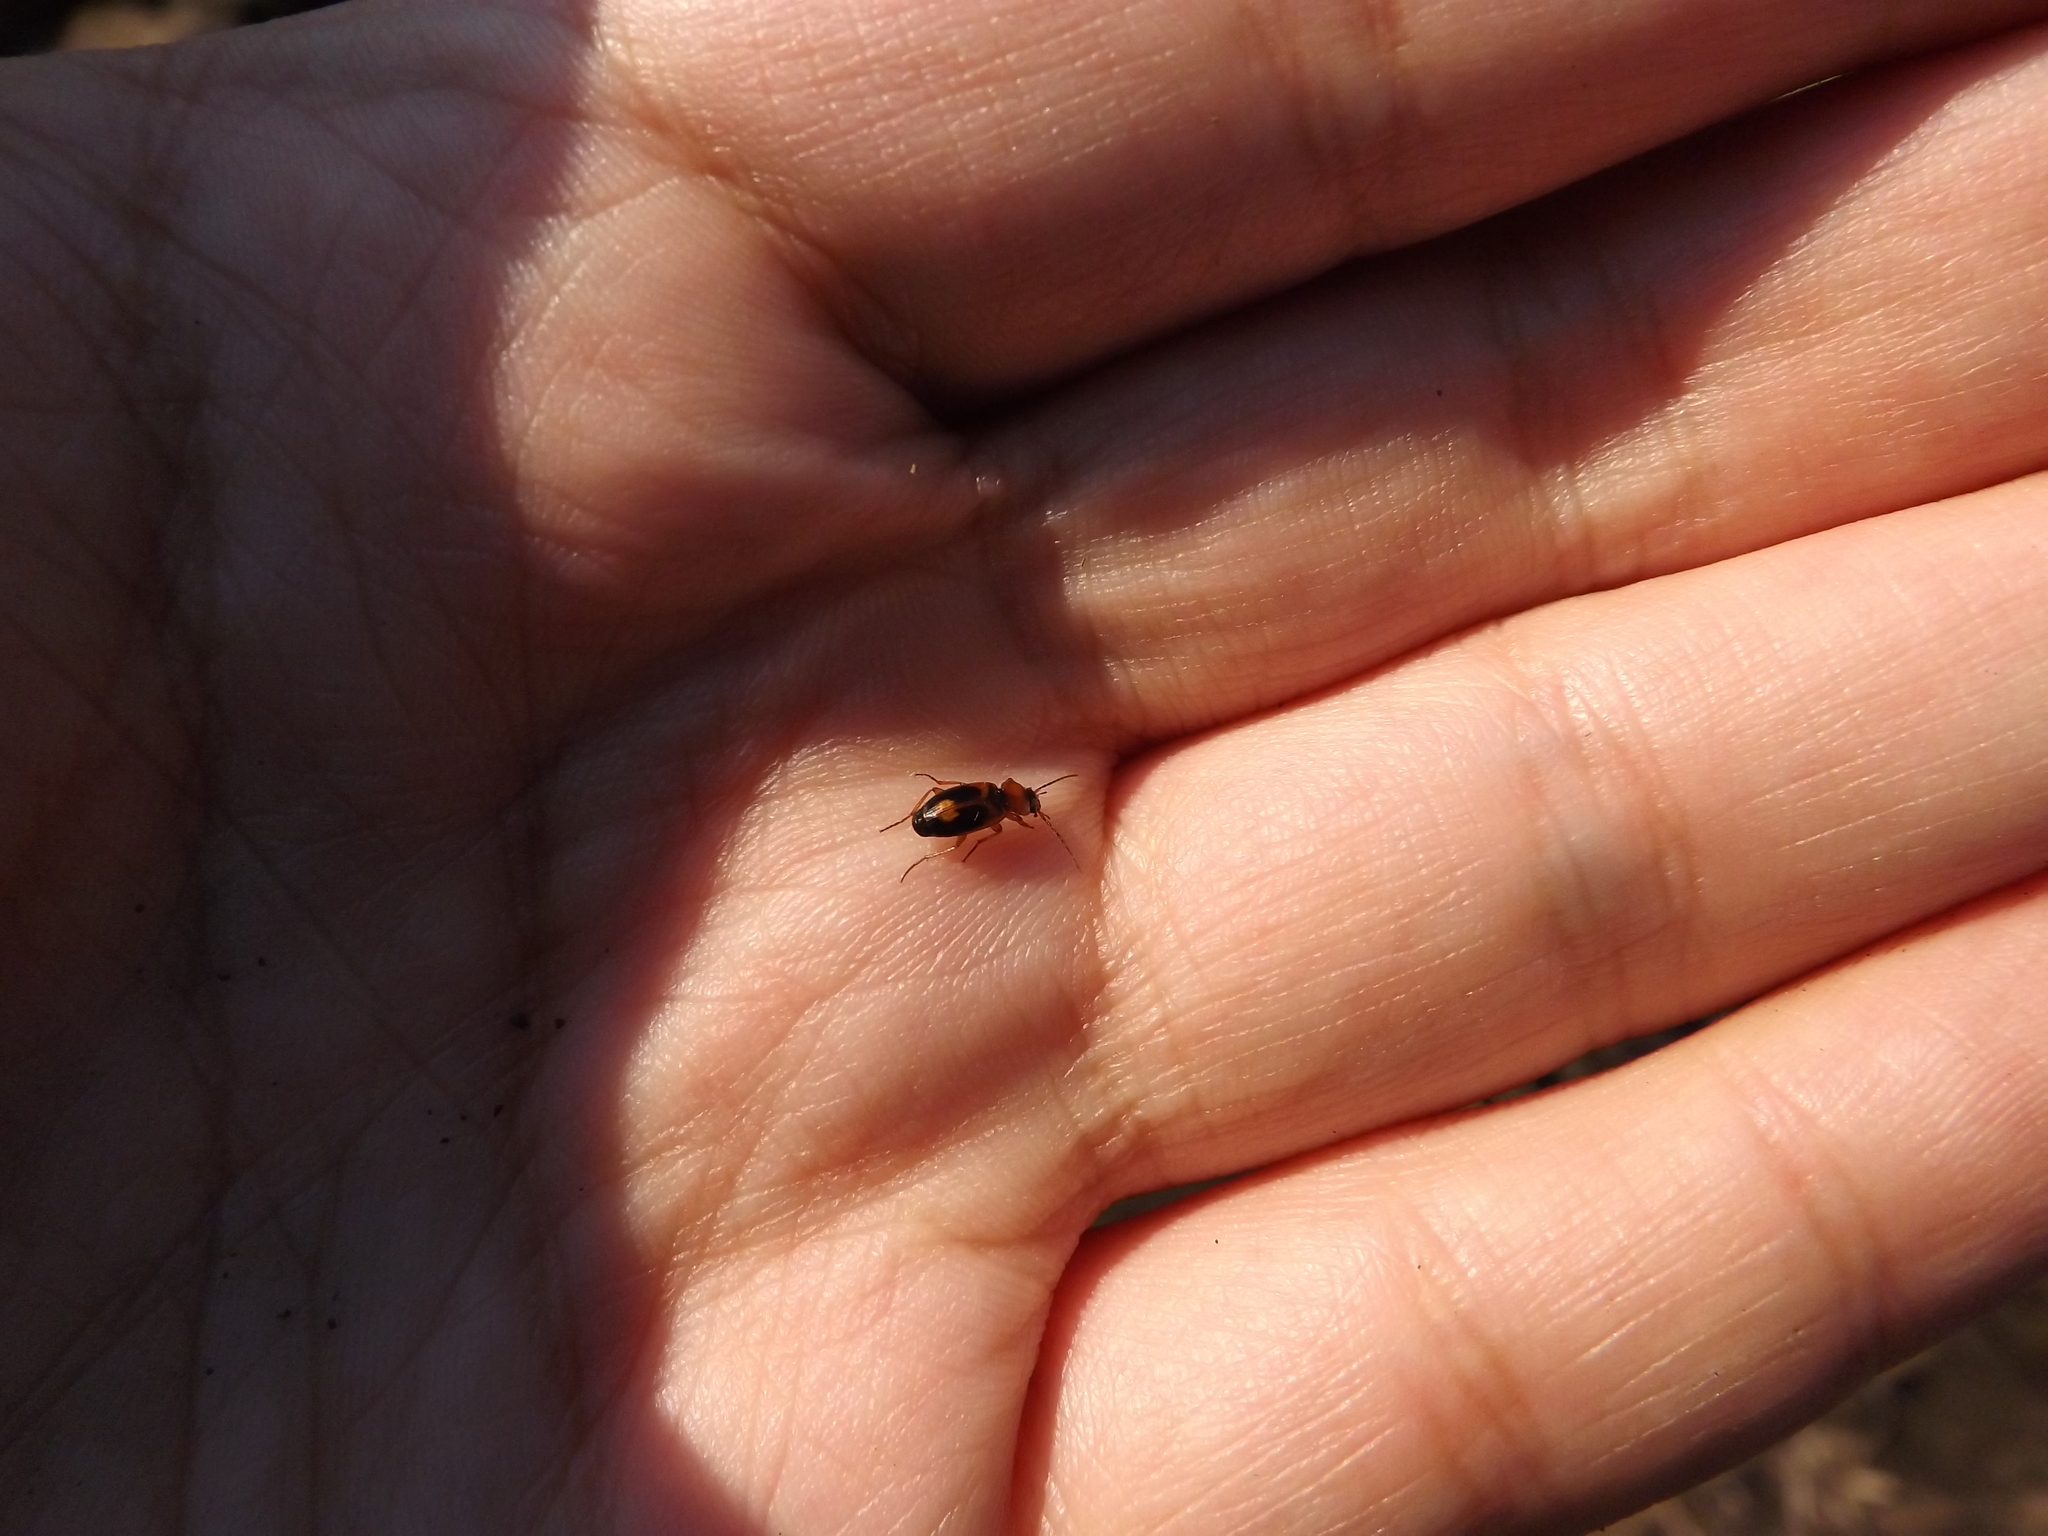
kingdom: Animalia
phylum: Arthropoda
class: Insecta
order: Coleoptera
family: Carabidae
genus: Badister
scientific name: Badister bullatus
